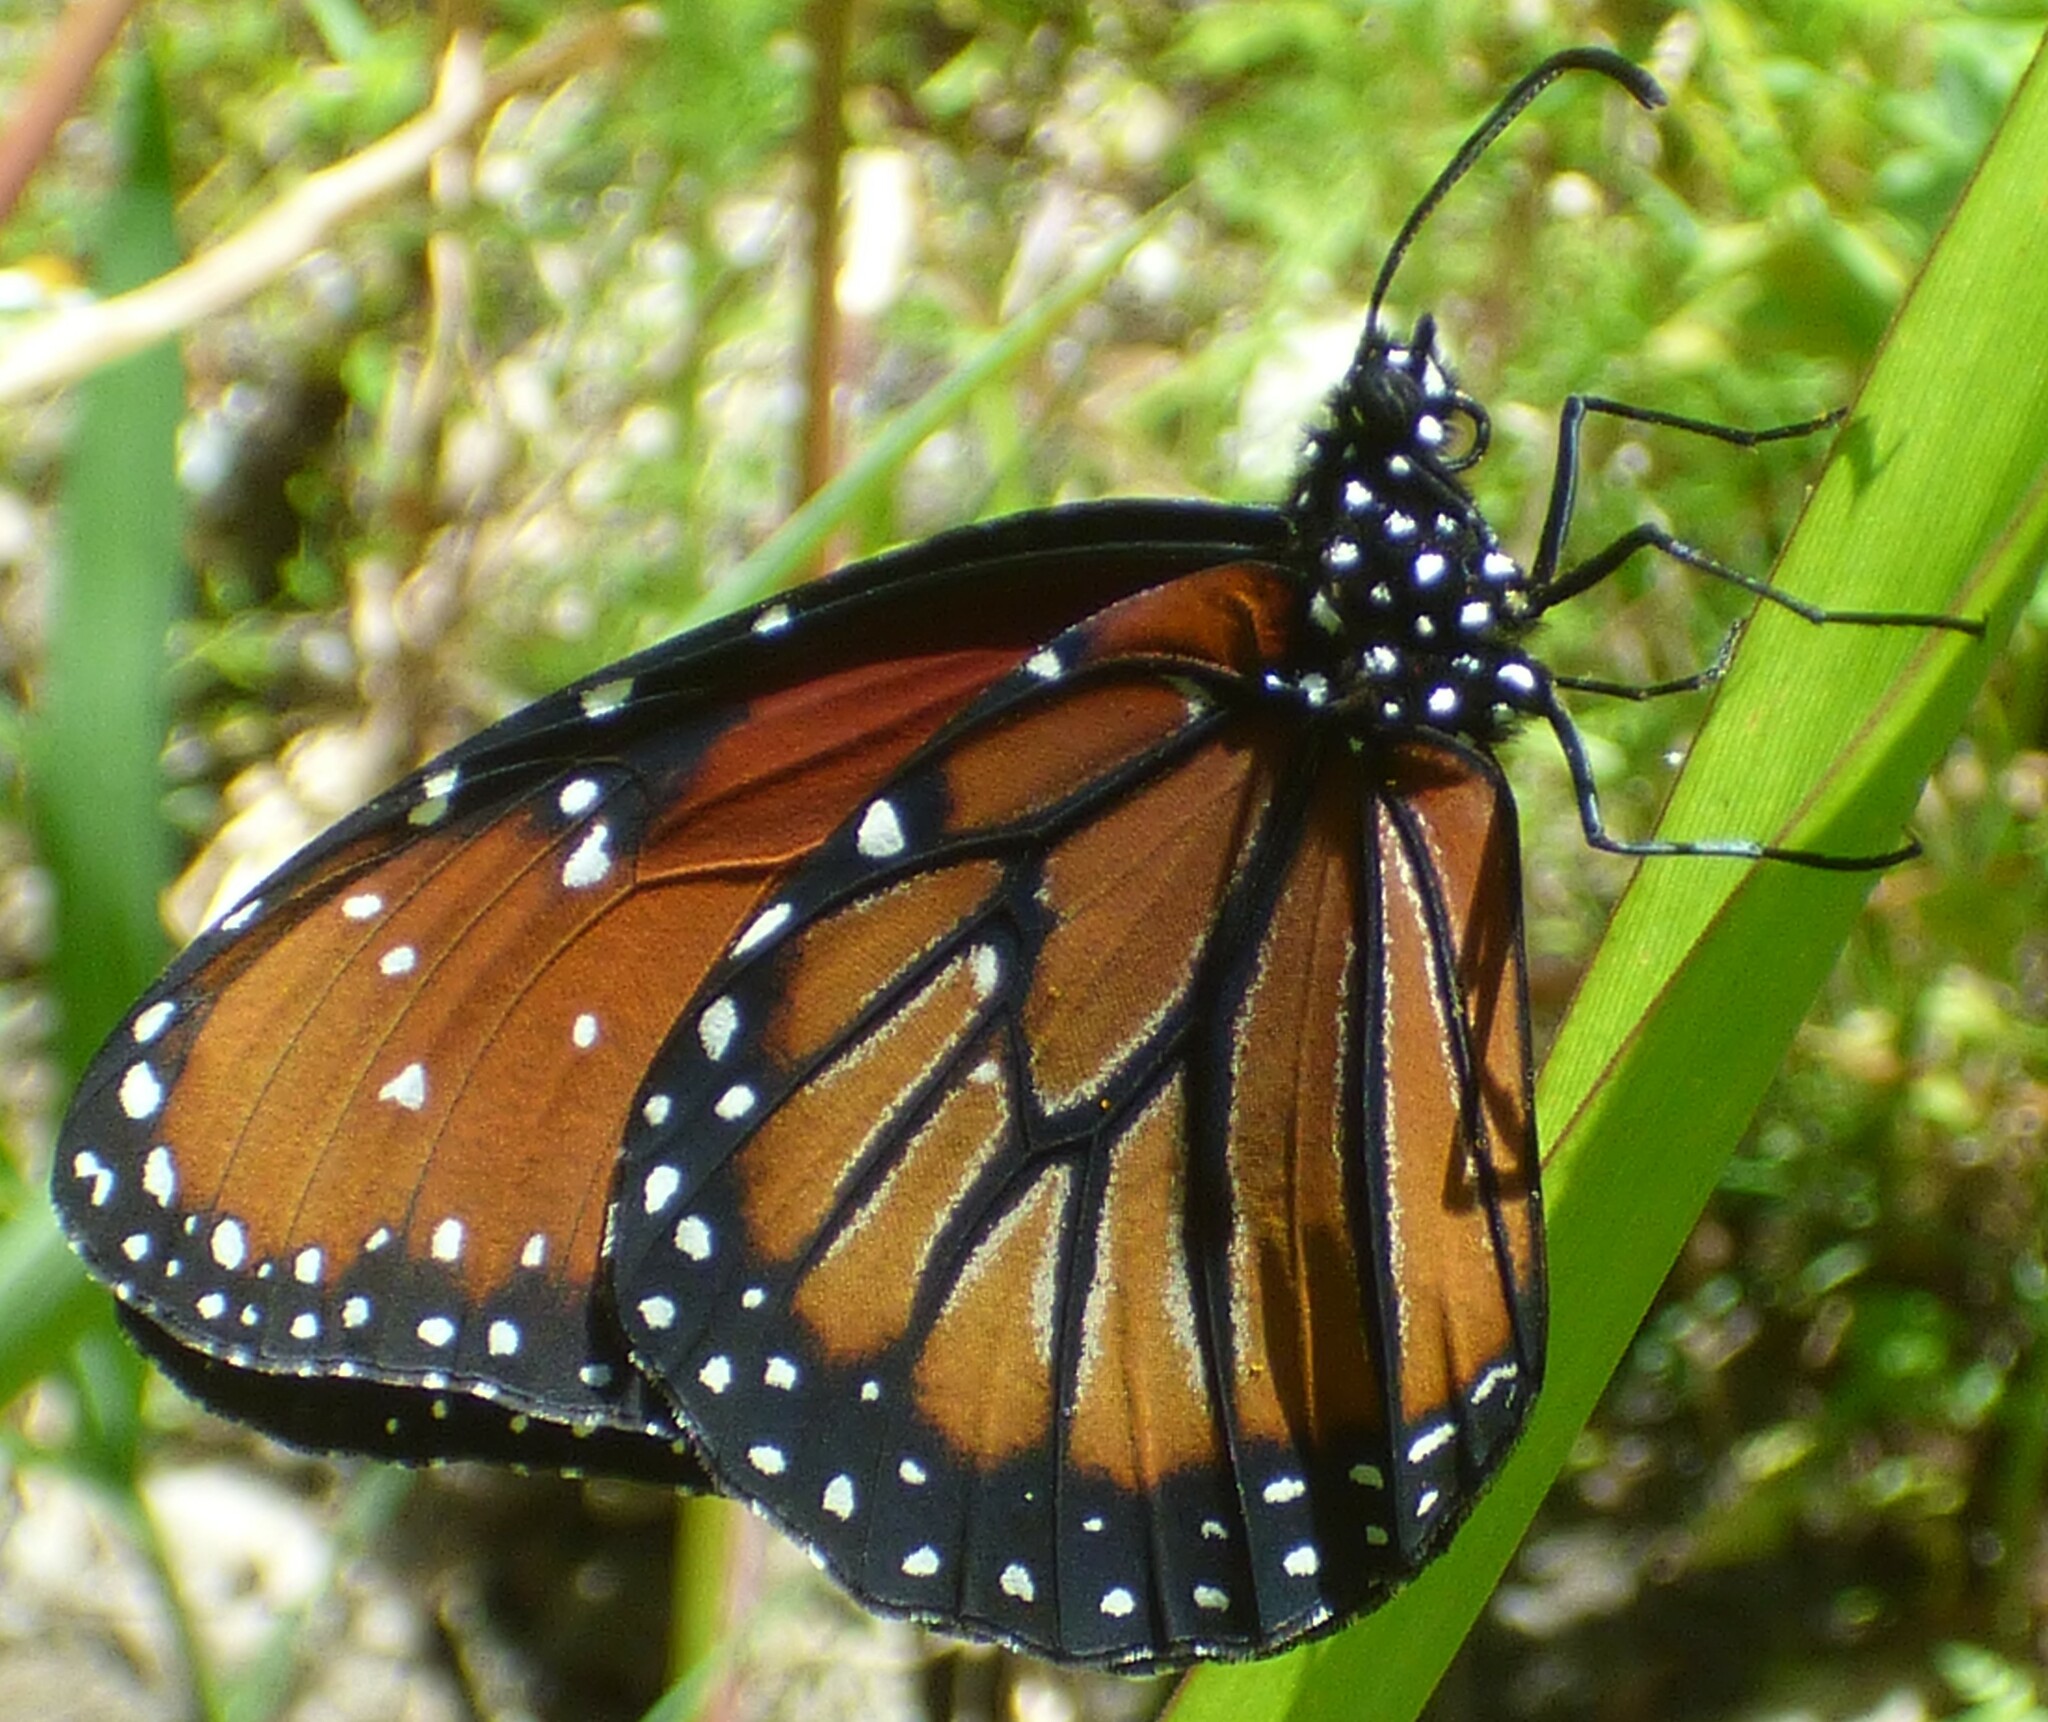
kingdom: Animalia
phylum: Arthropoda
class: Insecta
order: Lepidoptera
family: Nymphalidae
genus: Danaus
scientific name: Danaus gilippus
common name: Queen
